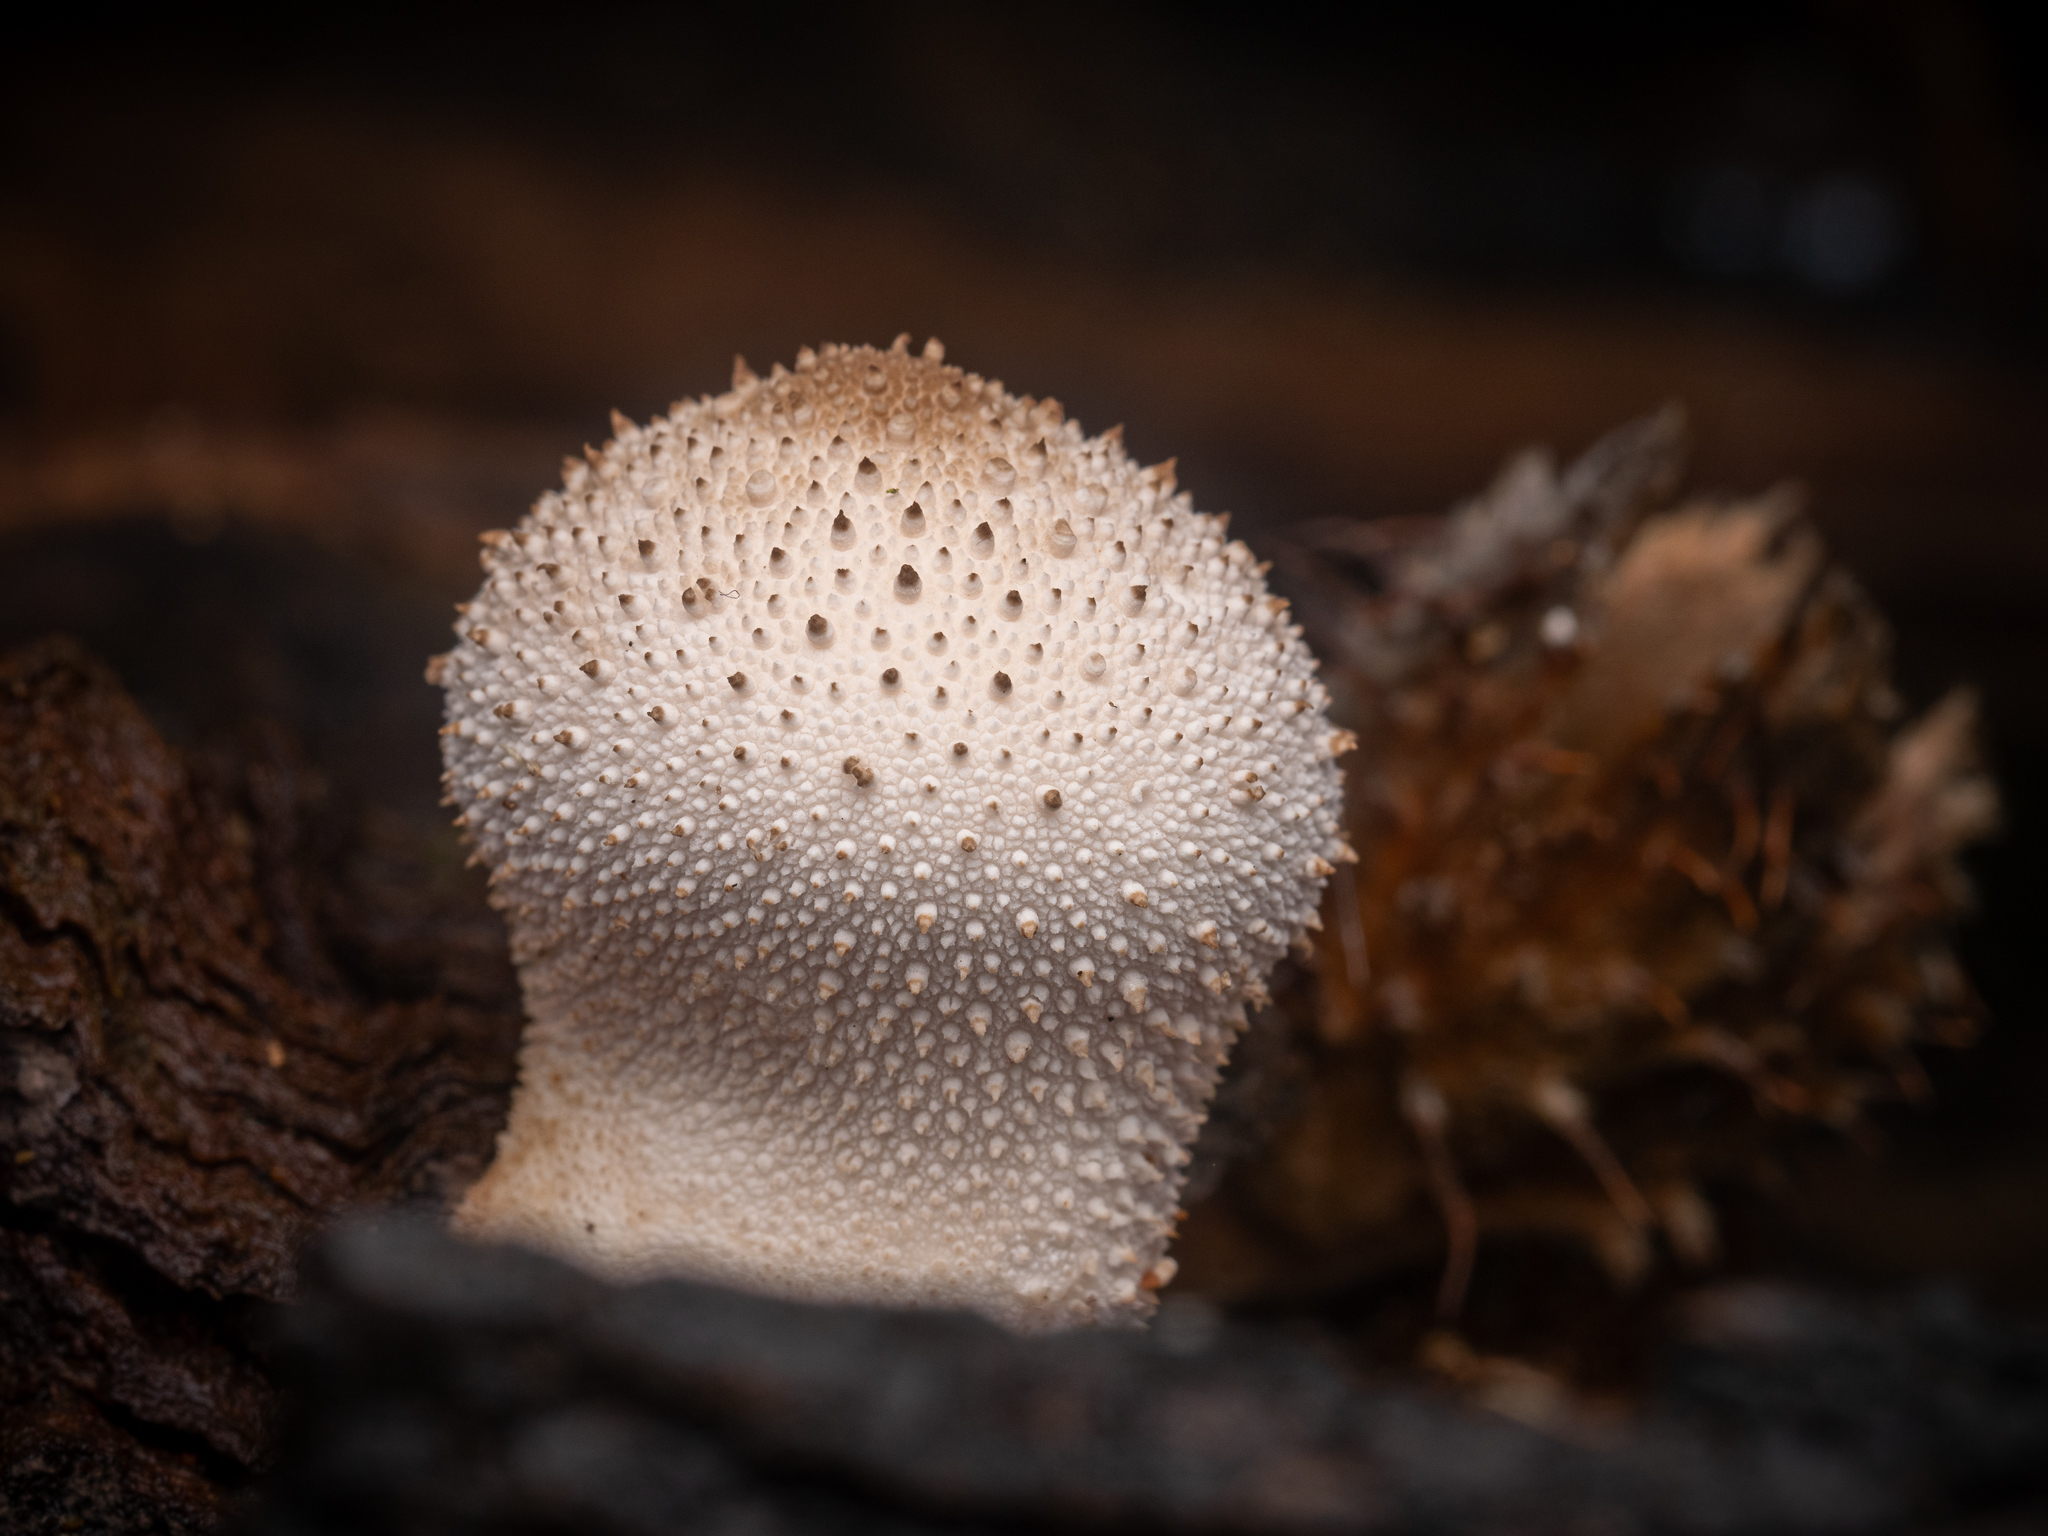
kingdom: Fungi
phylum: Basidiomycota
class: Agaricomycetes
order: Agaricales
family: Lycoperdaceae
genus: Lycoperdon
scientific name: Lycoperdon perlatum
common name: Common puffball
